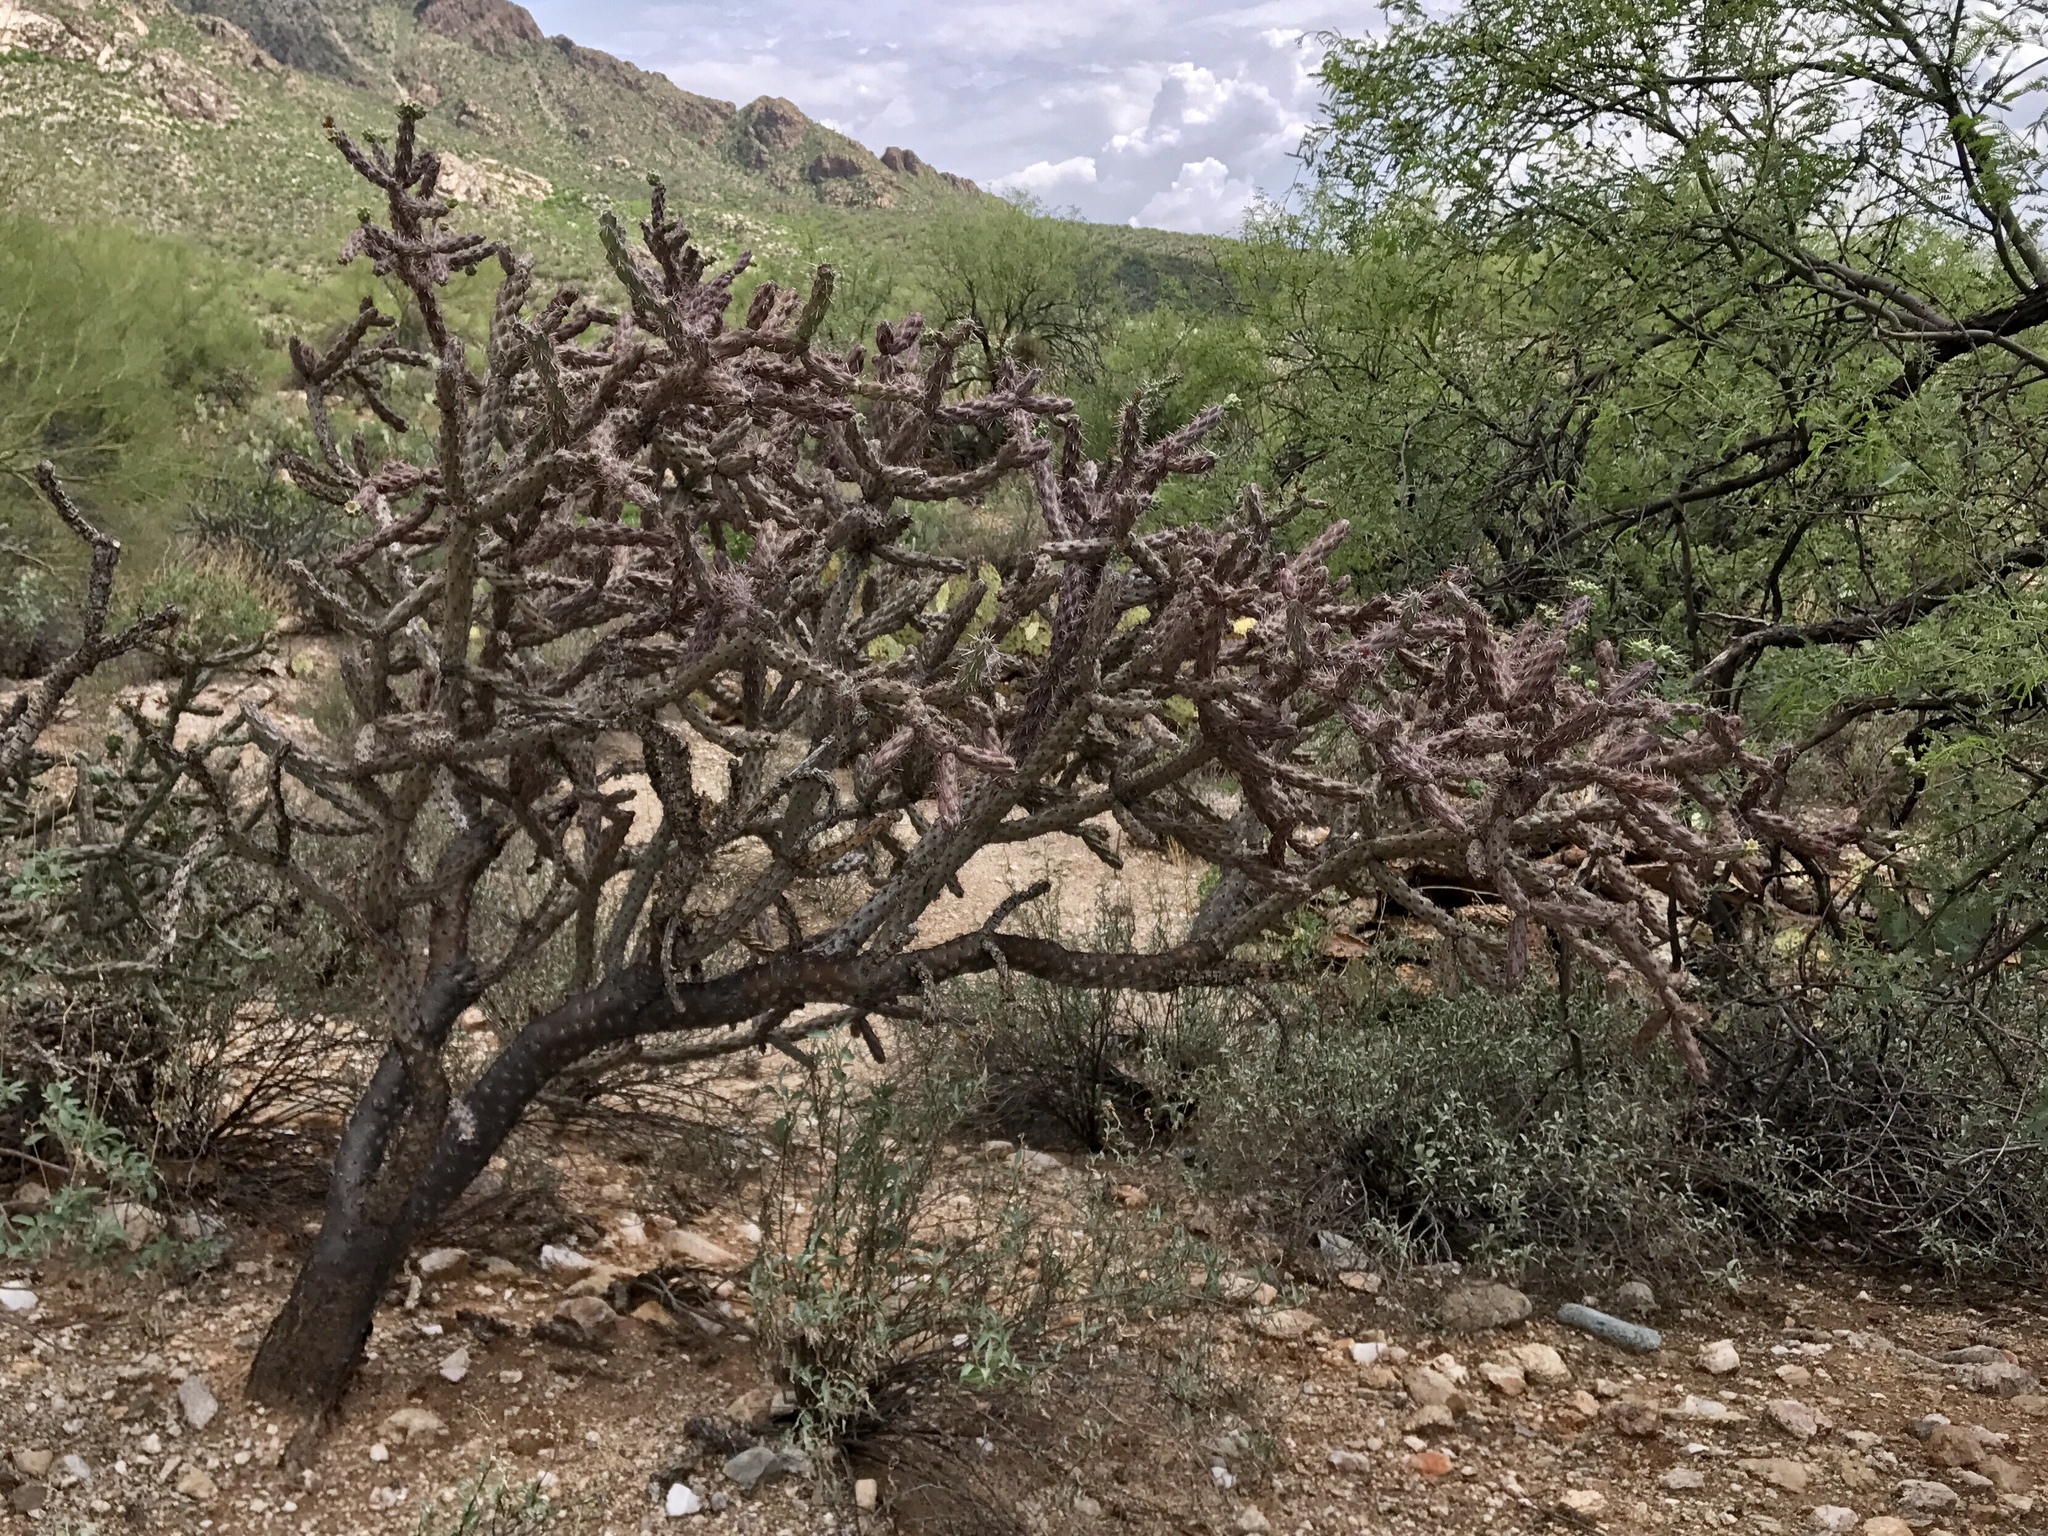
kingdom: Plantae
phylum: Tracheophyta
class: Magnoliopsida
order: Caryophyllales
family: Cactaceae
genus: Cylindropuntia
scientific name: Cylindropuntia thurberi
